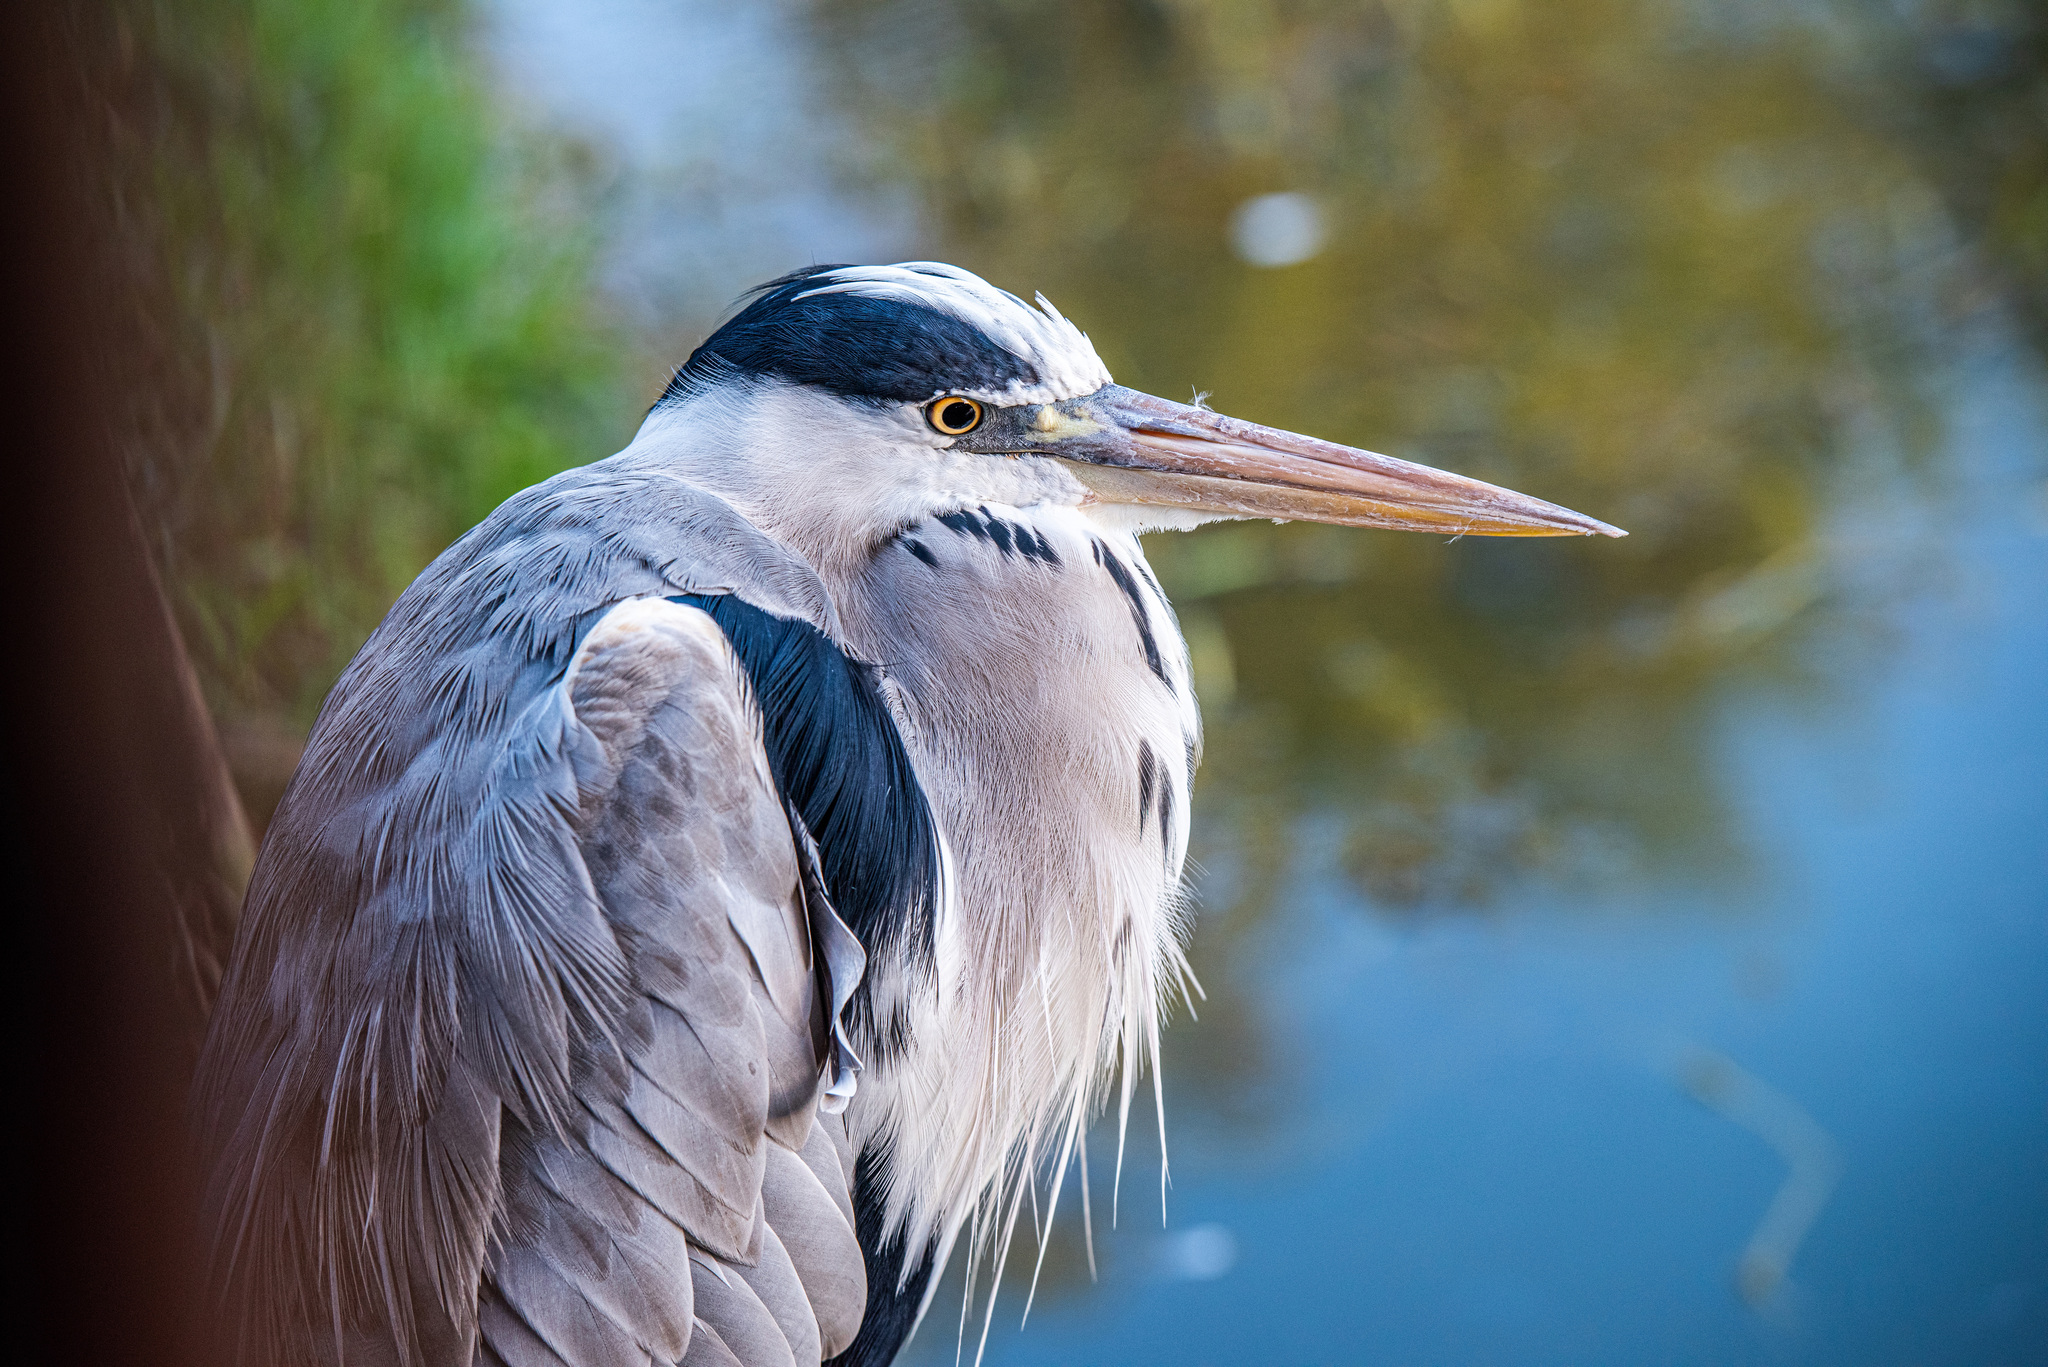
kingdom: Animalia
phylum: Chordata
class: Aves
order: Pelecaniformes
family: Ardeidae
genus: Ardea
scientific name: Ardea cinerea
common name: Grey heron
